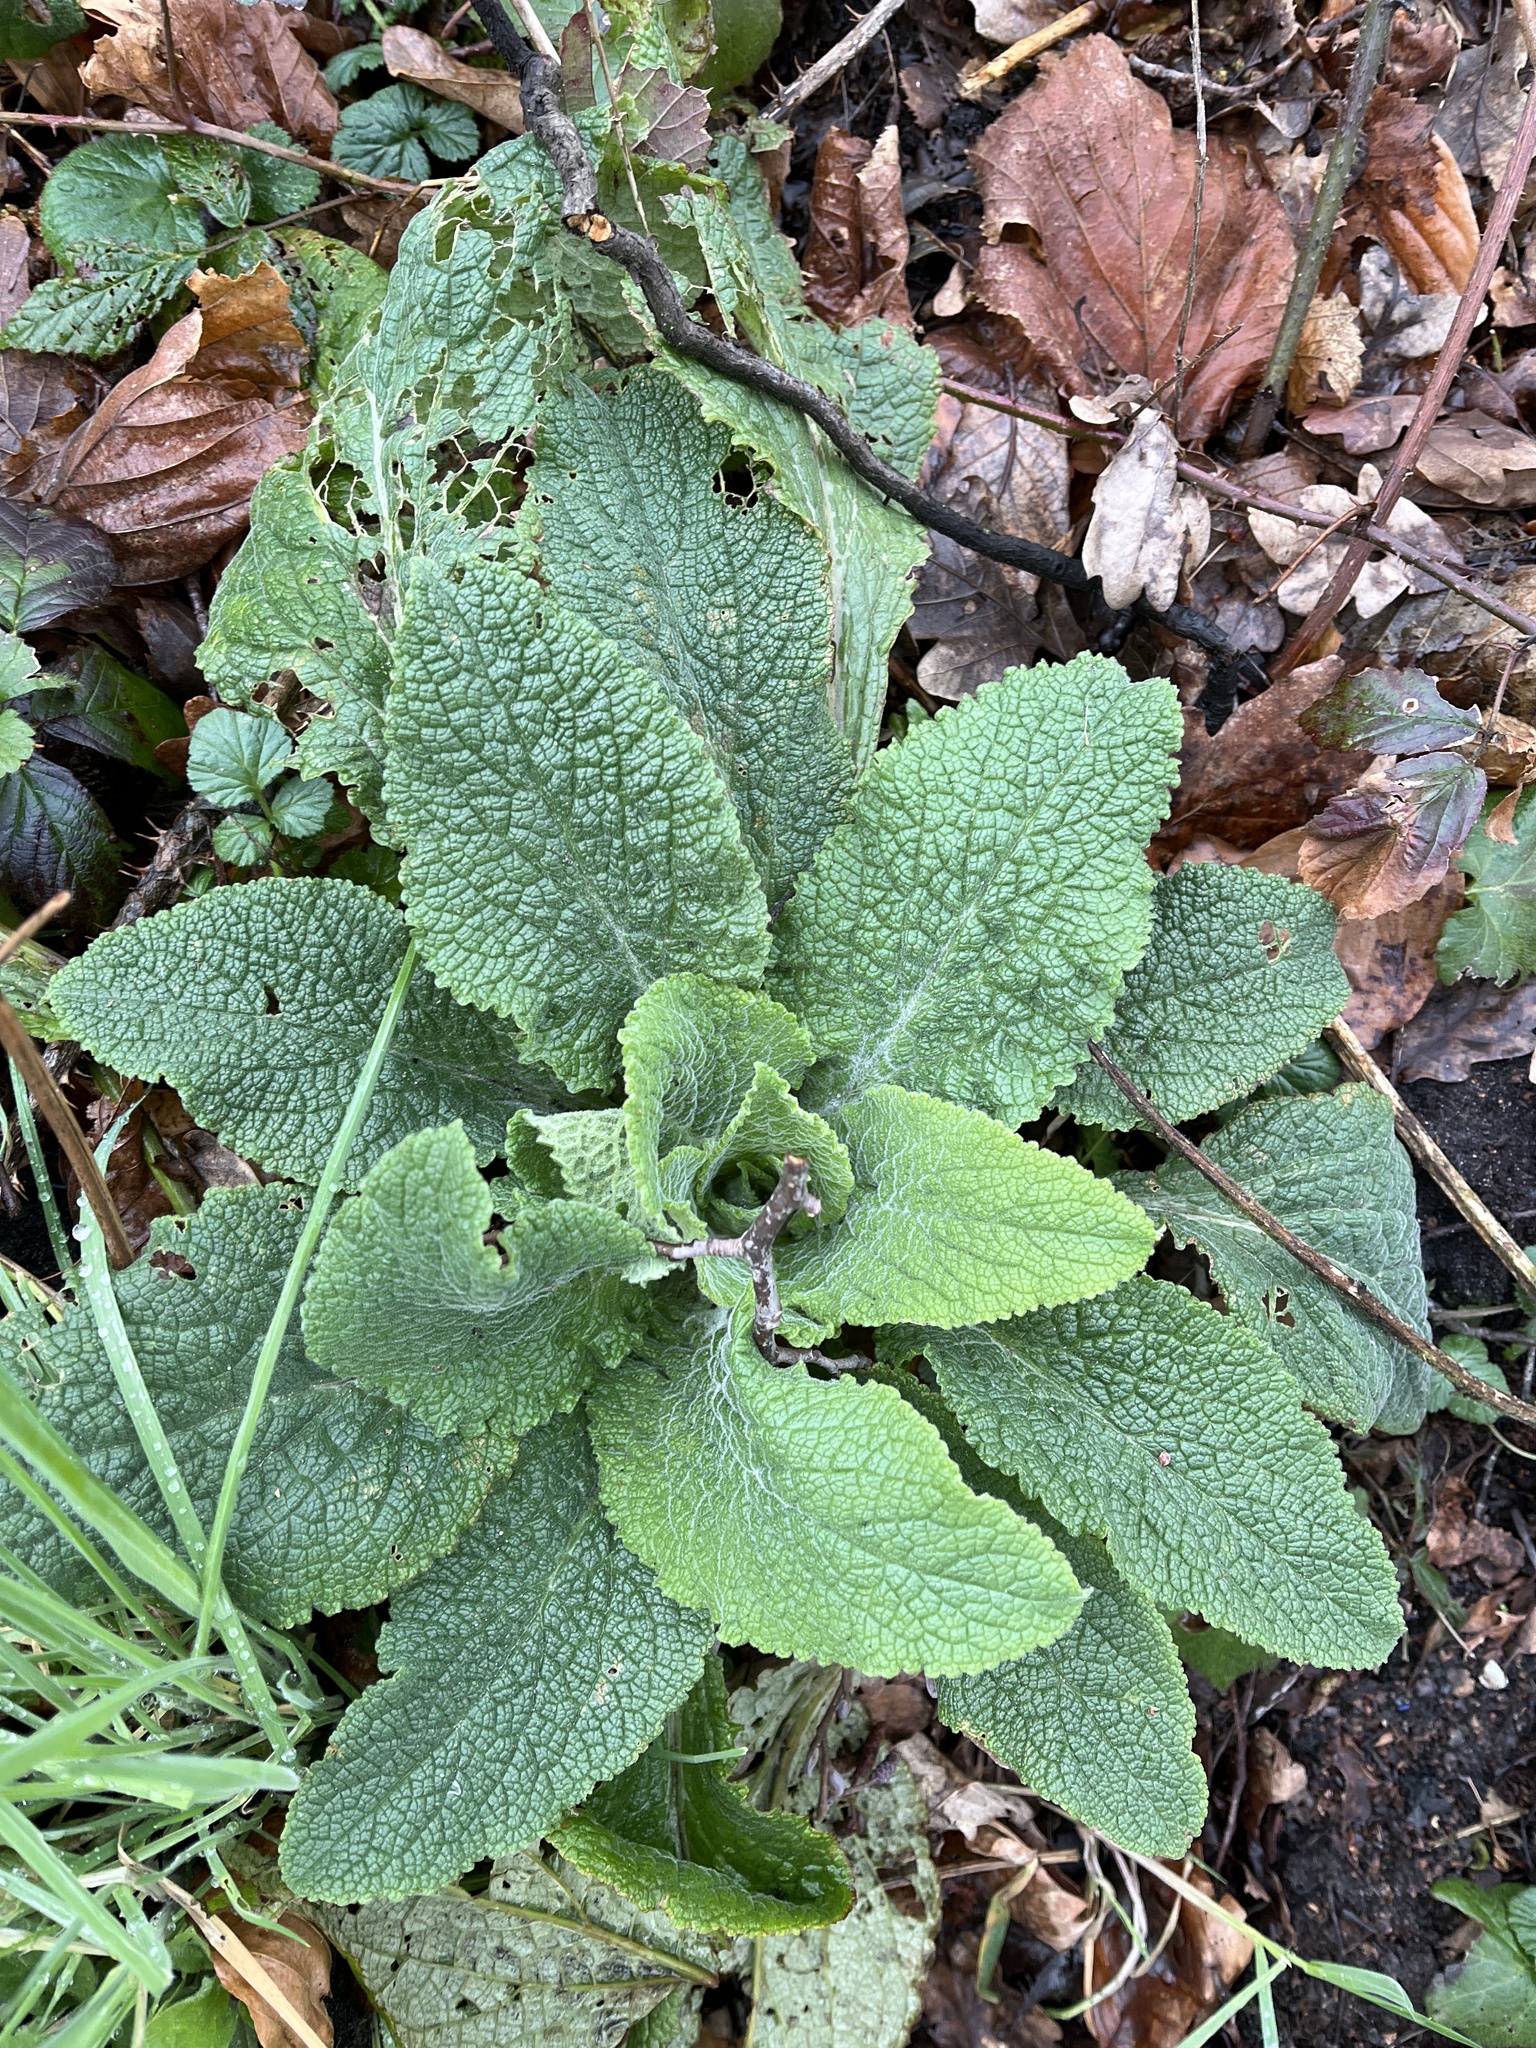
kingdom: Plantae
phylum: Tracheophyta
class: Magnoliopsida
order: Lamiales
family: Plantaginaceae
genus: Digitalis
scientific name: Digitalis purpurea
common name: Foxglove
